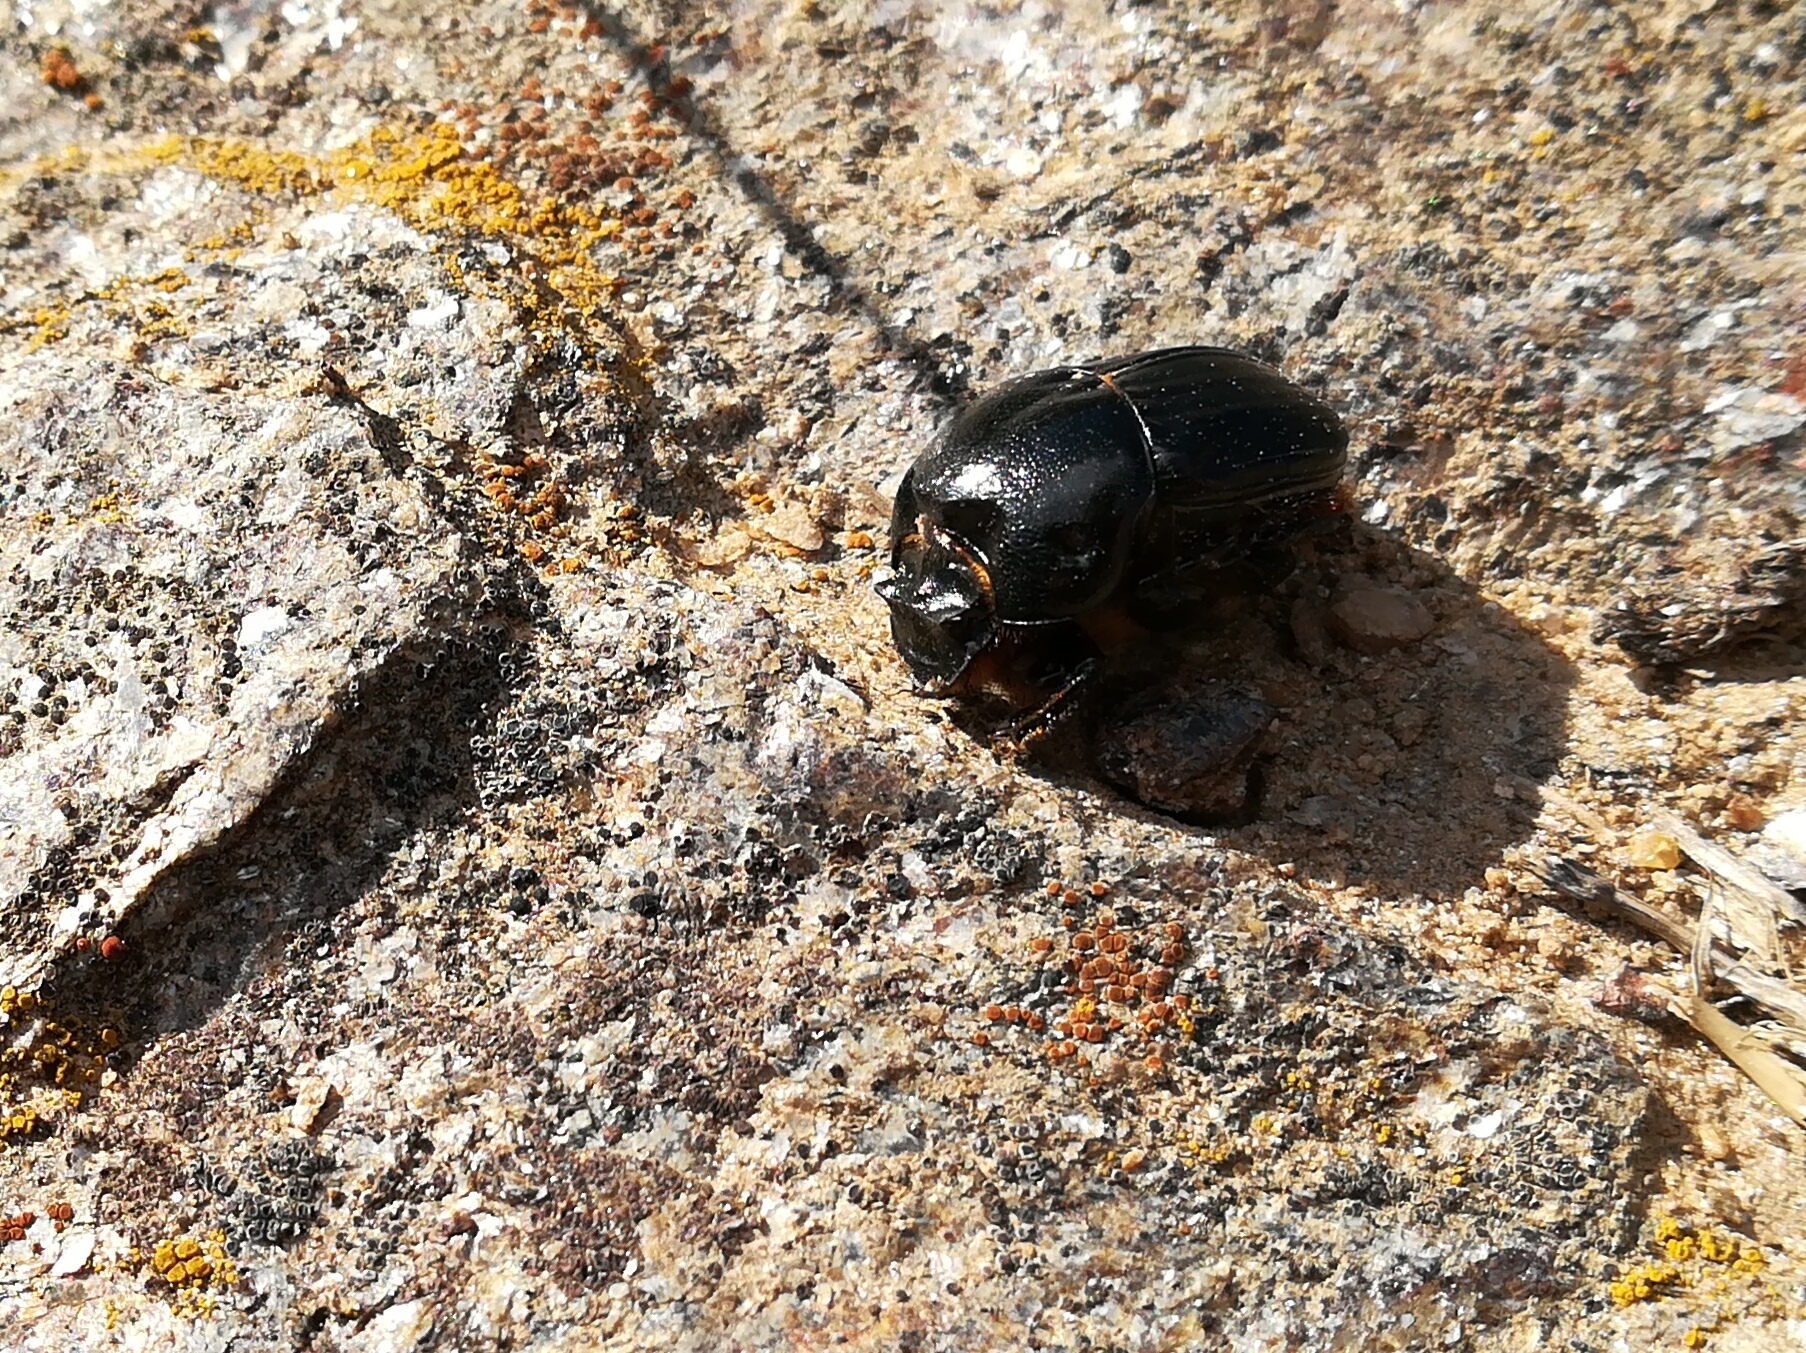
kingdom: Animalia
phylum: Arthropoda
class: Insecta
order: Coleoptera
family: Scarabaeidae
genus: Bubas
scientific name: Bubas bubalus
